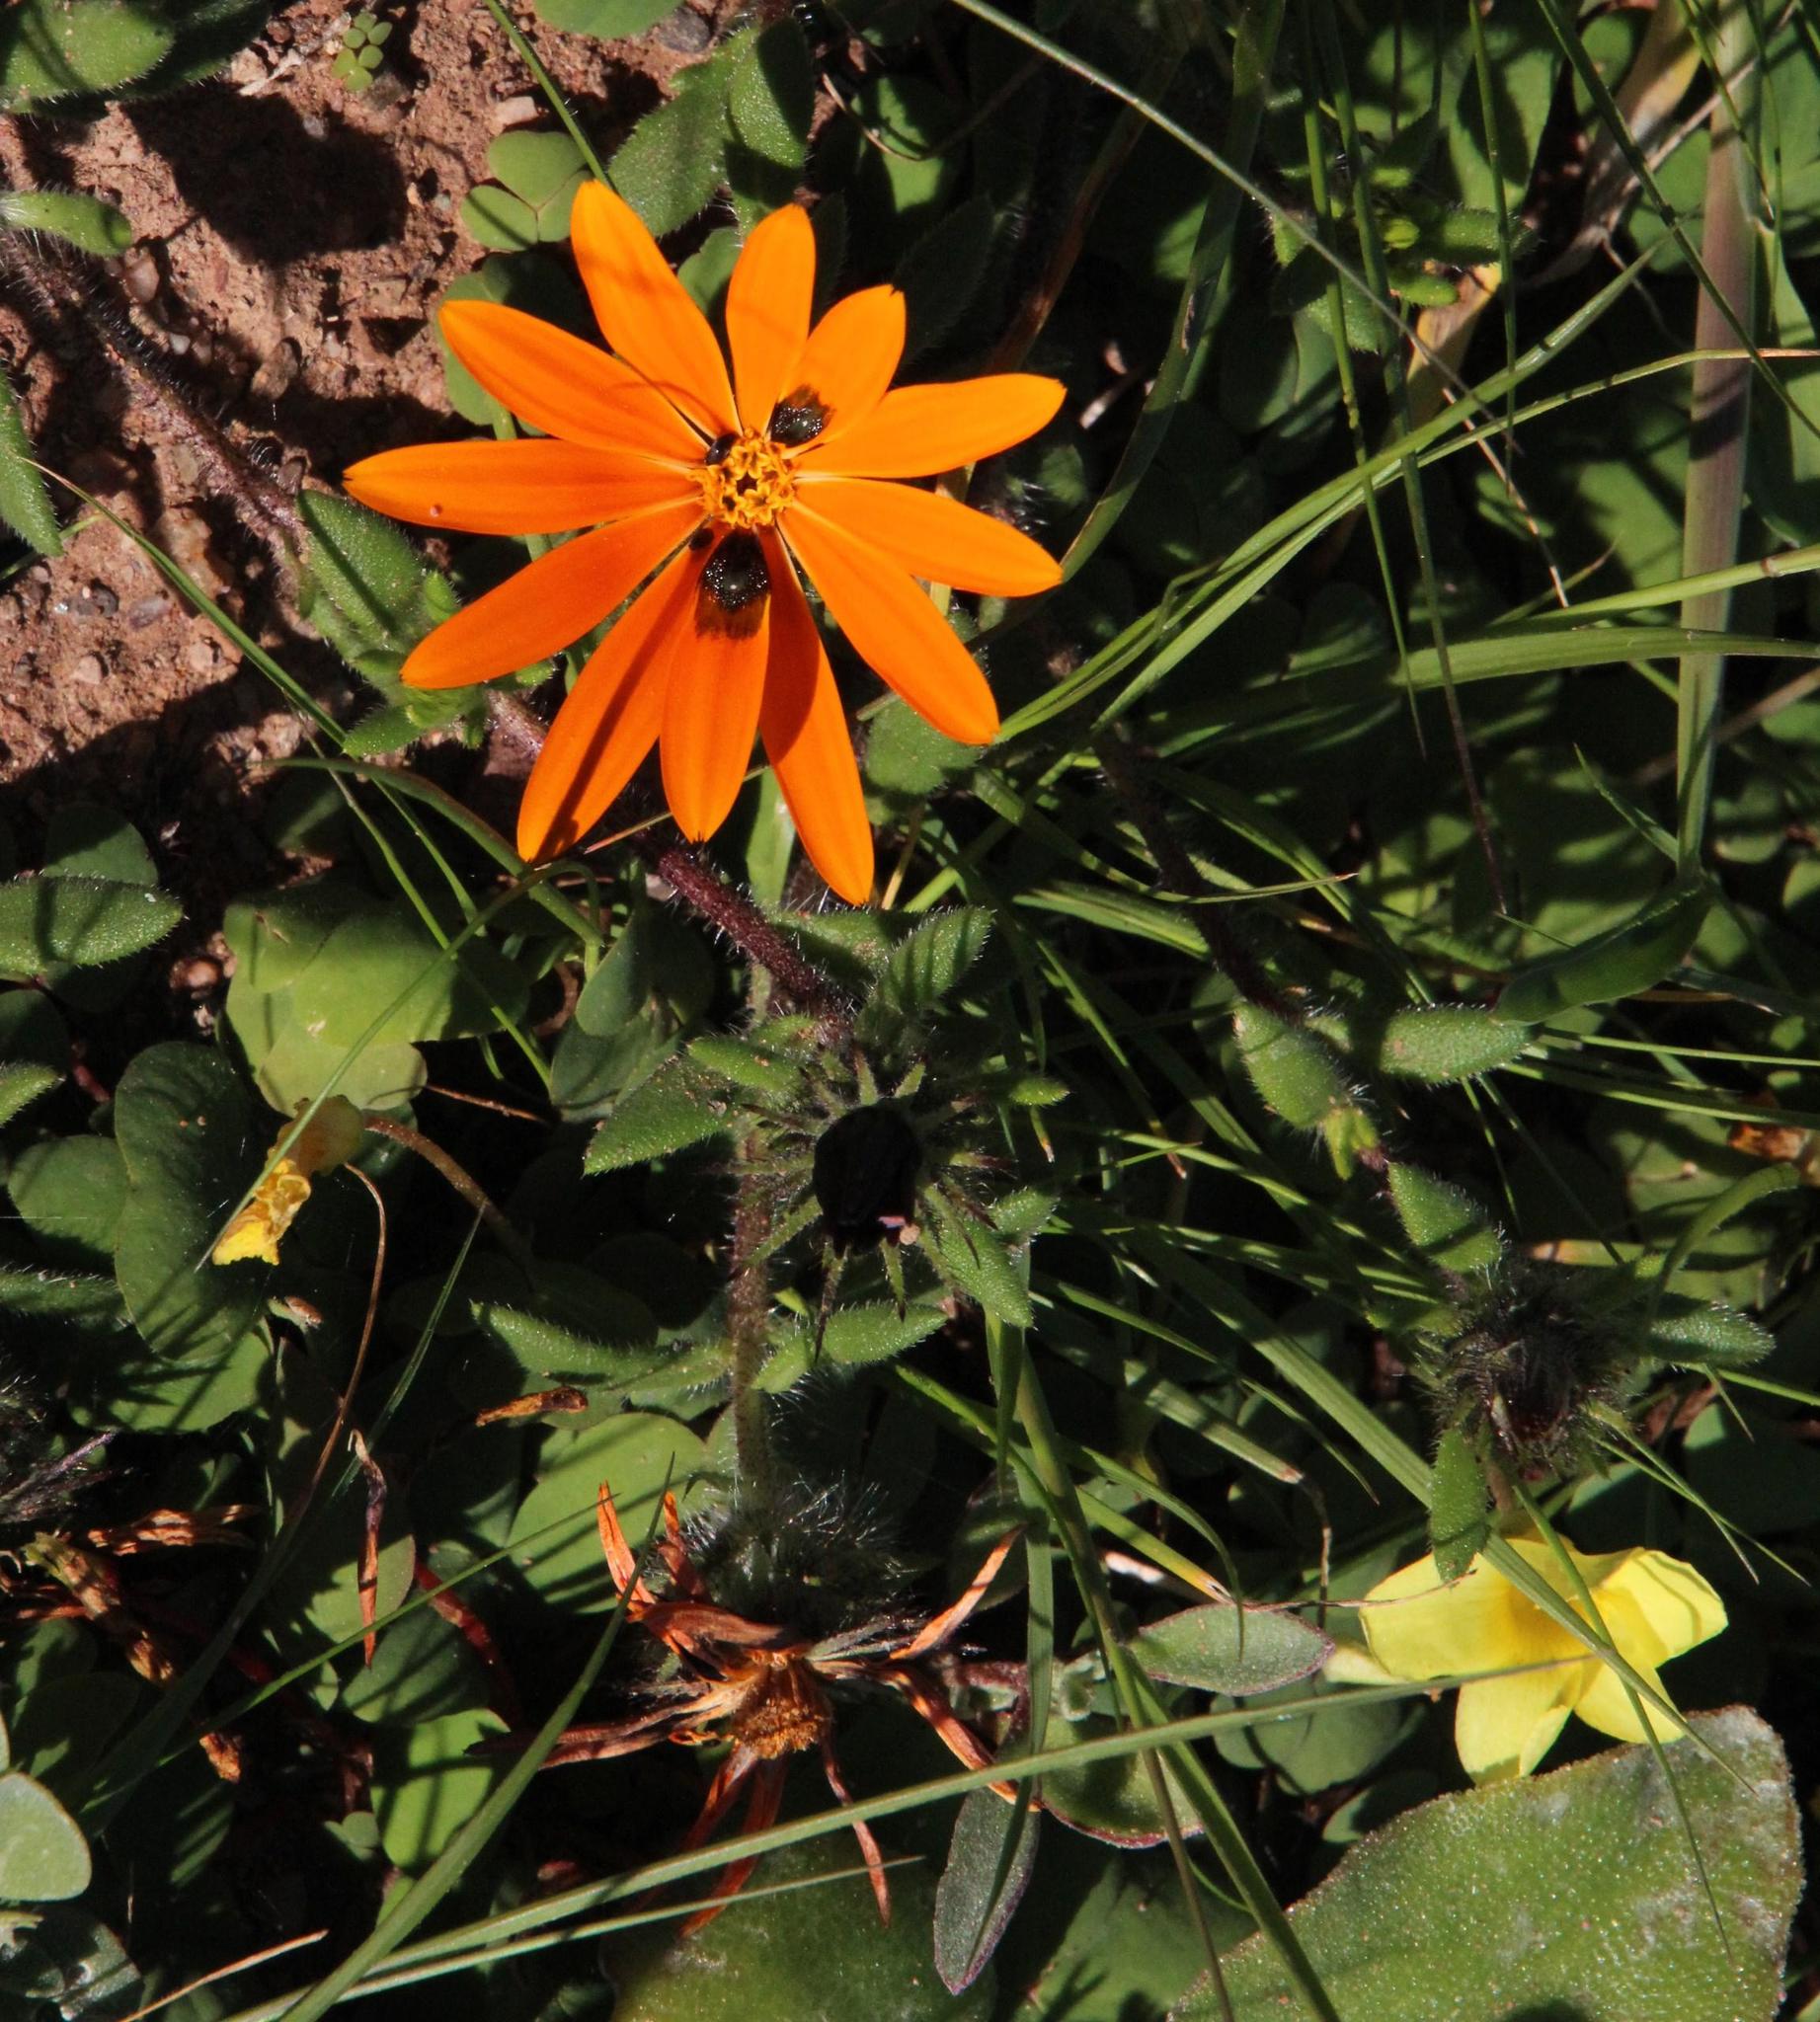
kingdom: Plantae
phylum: Tracheophyta
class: Magnoliopsida
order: Asterales
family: Asteraceae
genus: Gorteria
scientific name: Gorteria diffusa
